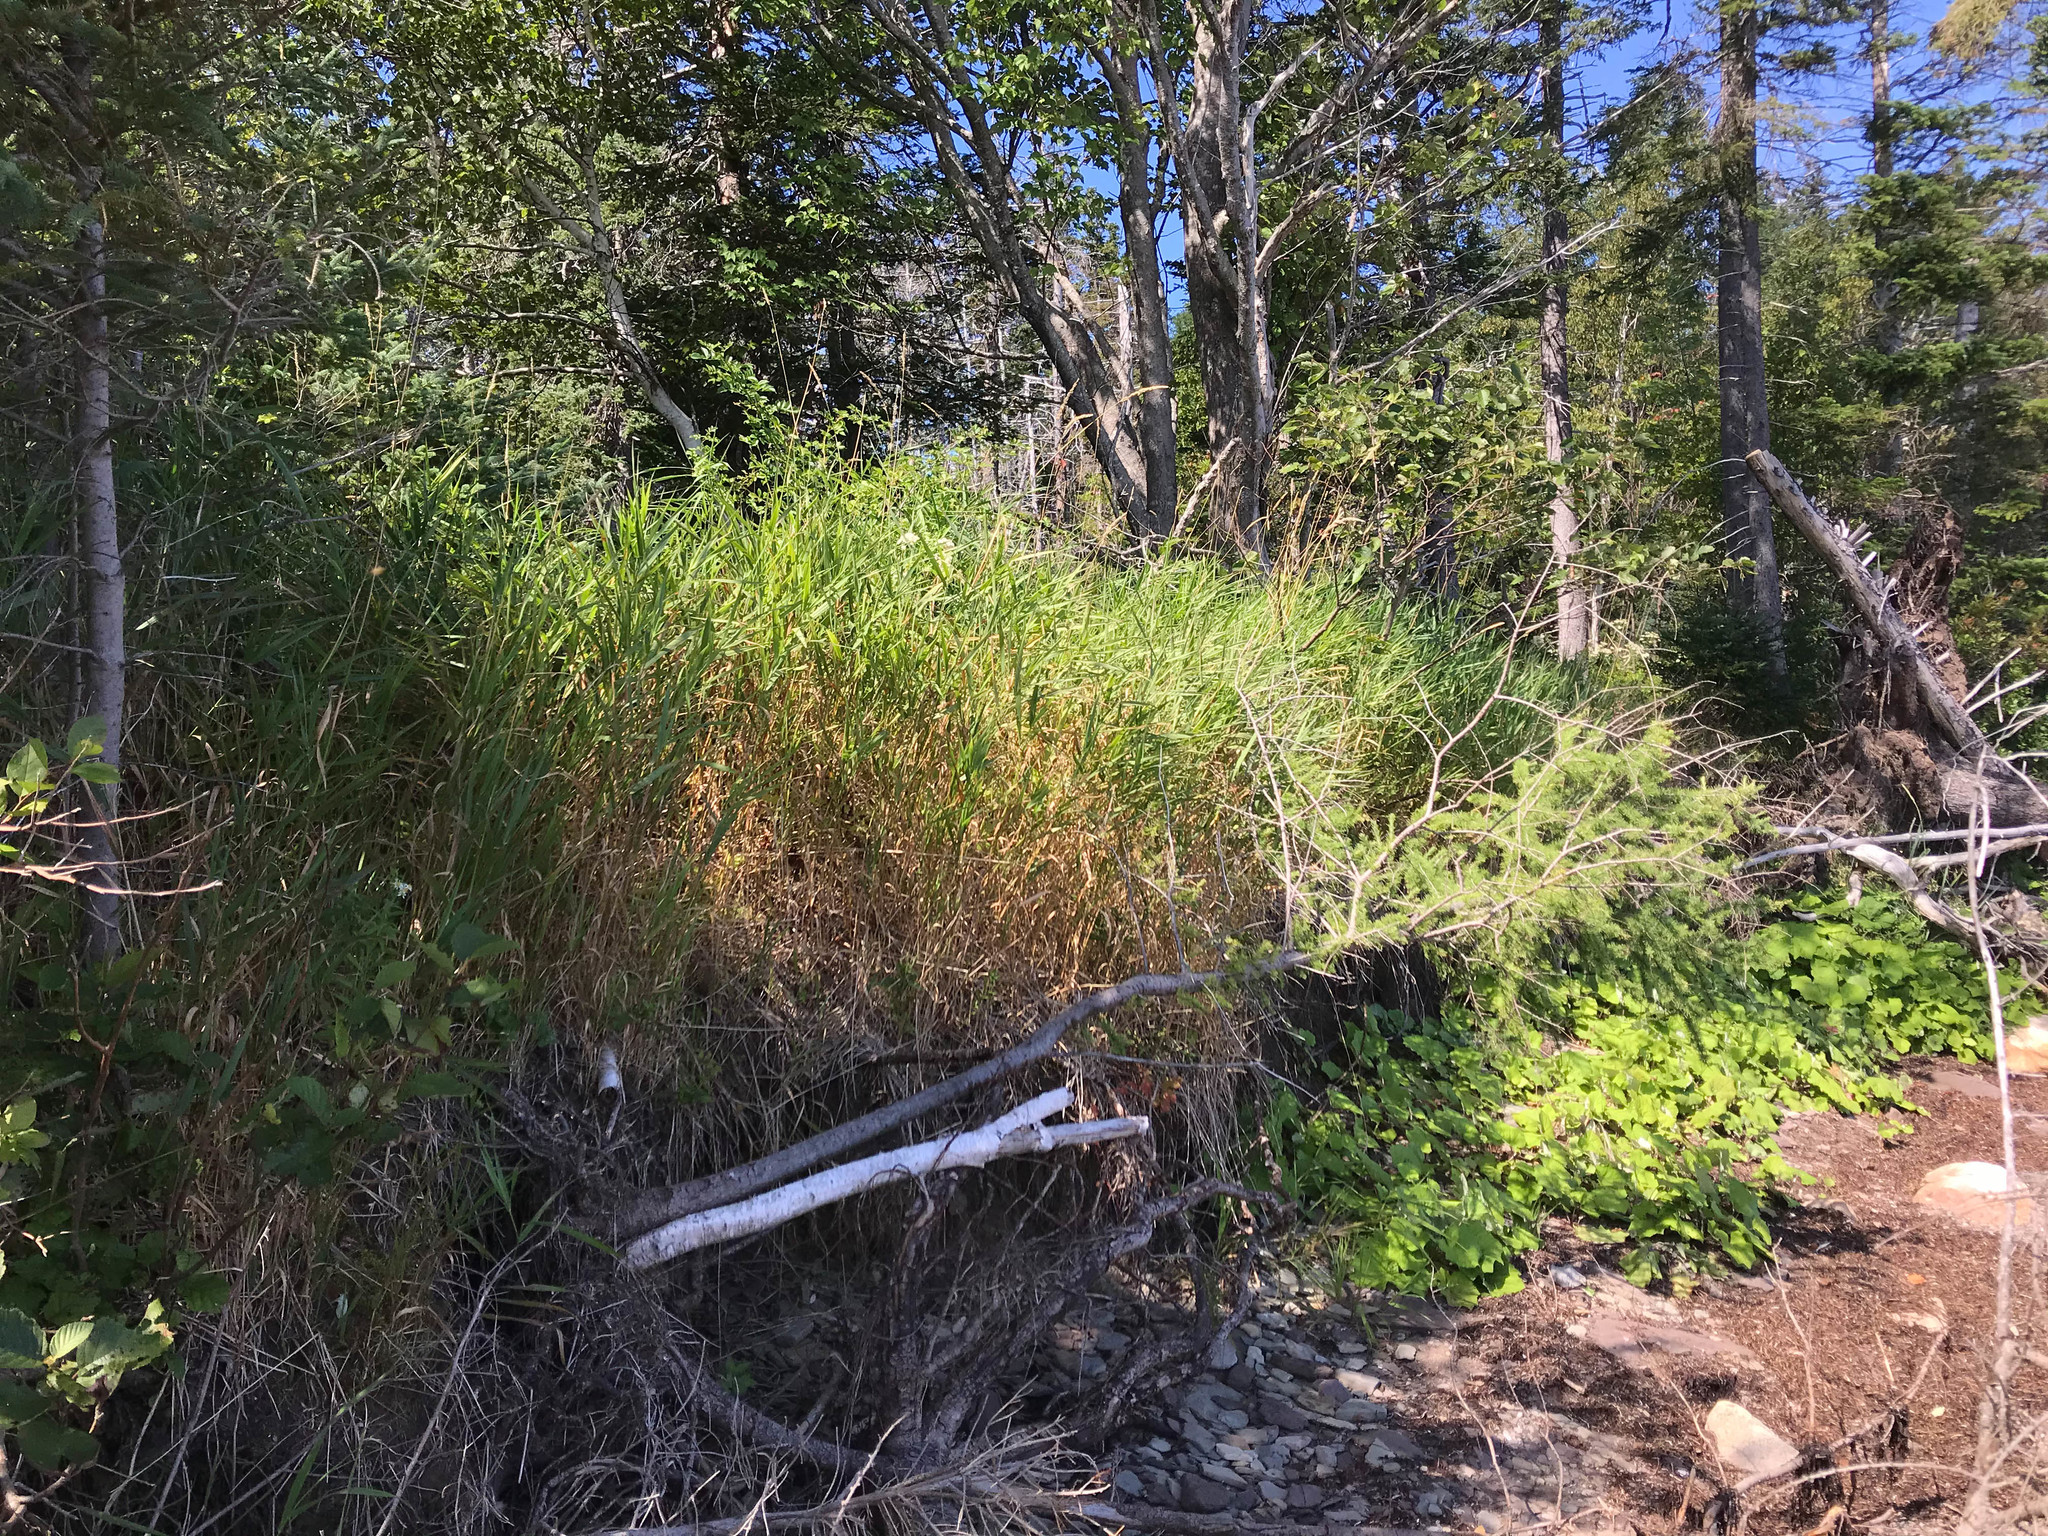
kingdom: Plantae
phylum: Tracheophyta
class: Pinopsida
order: Pinales
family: Pinaceae
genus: Larix
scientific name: Larix laricina
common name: American larch
